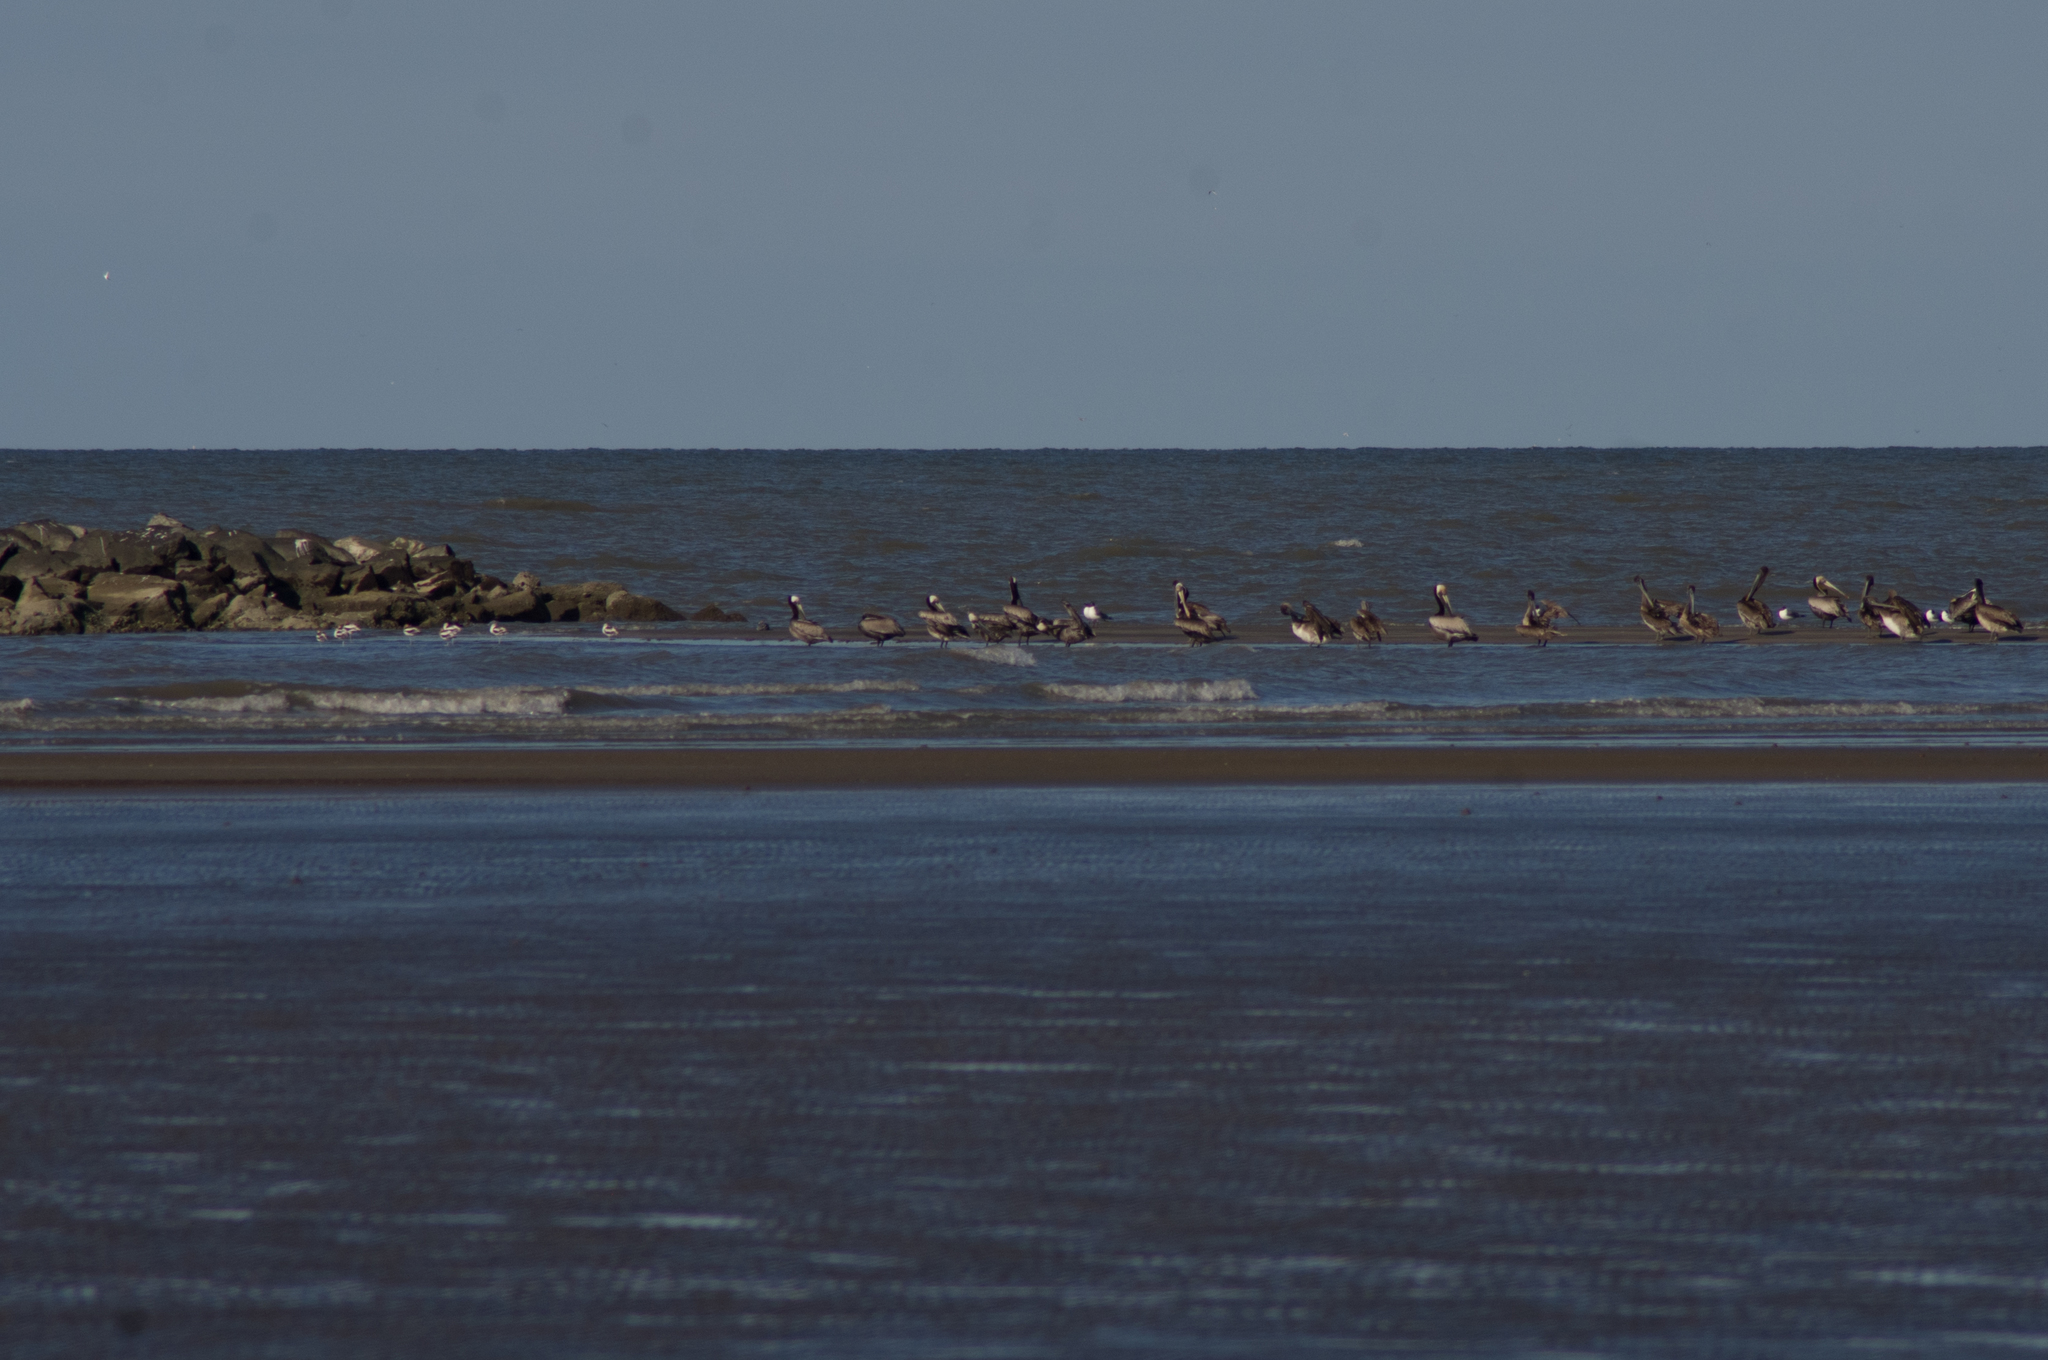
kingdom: Animalia
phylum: Chordata
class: Aves
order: Pelecaniformes
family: Pelecanidae
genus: Pelecanus
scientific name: Pelecanus occidentalis
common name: Brown pelican
